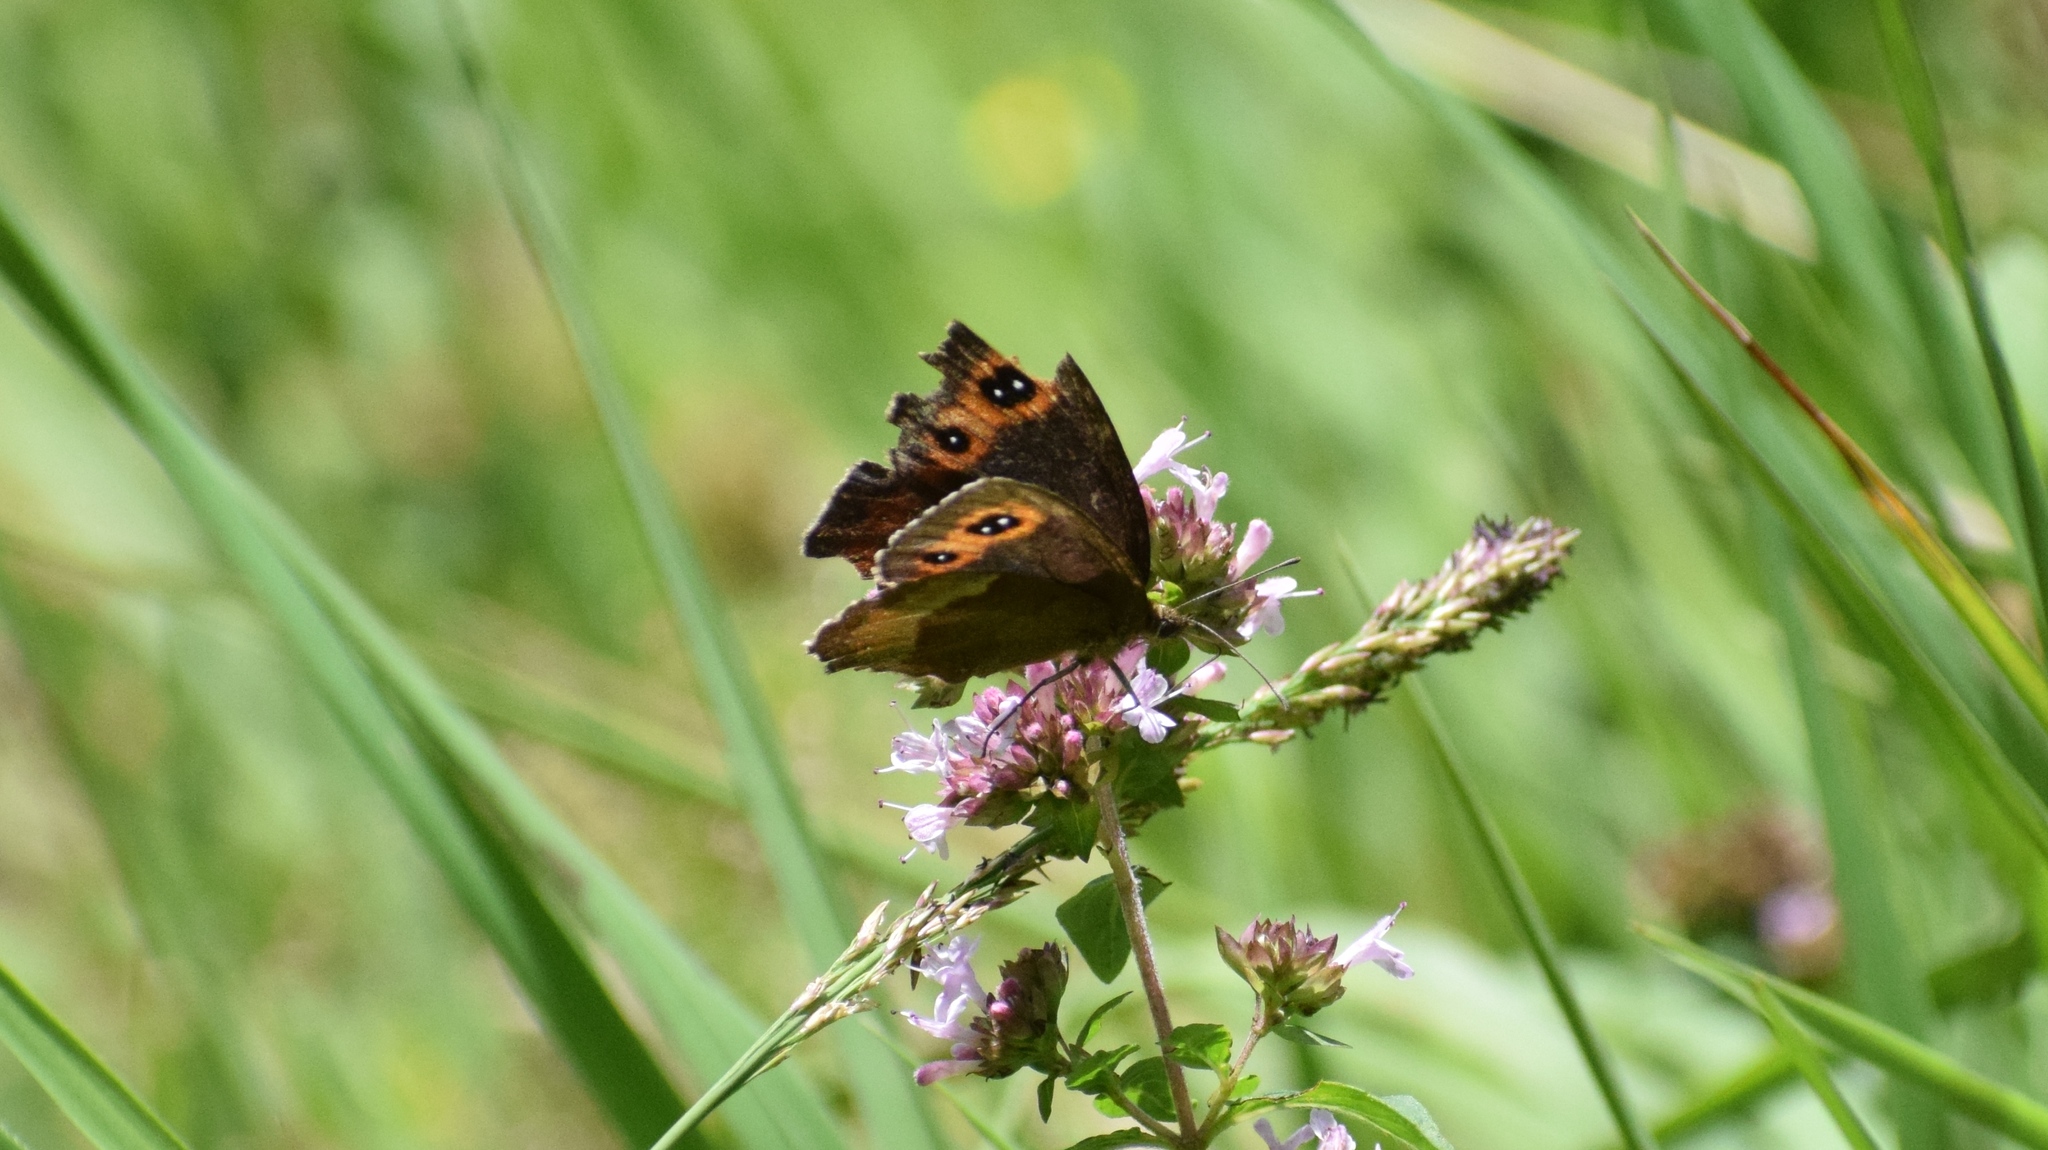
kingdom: Animalia
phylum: Arthropoda
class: Insecta
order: Lepidoptera
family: Nymphalidae
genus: Erebia
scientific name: Erebia aethiops
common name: Scotch argus
